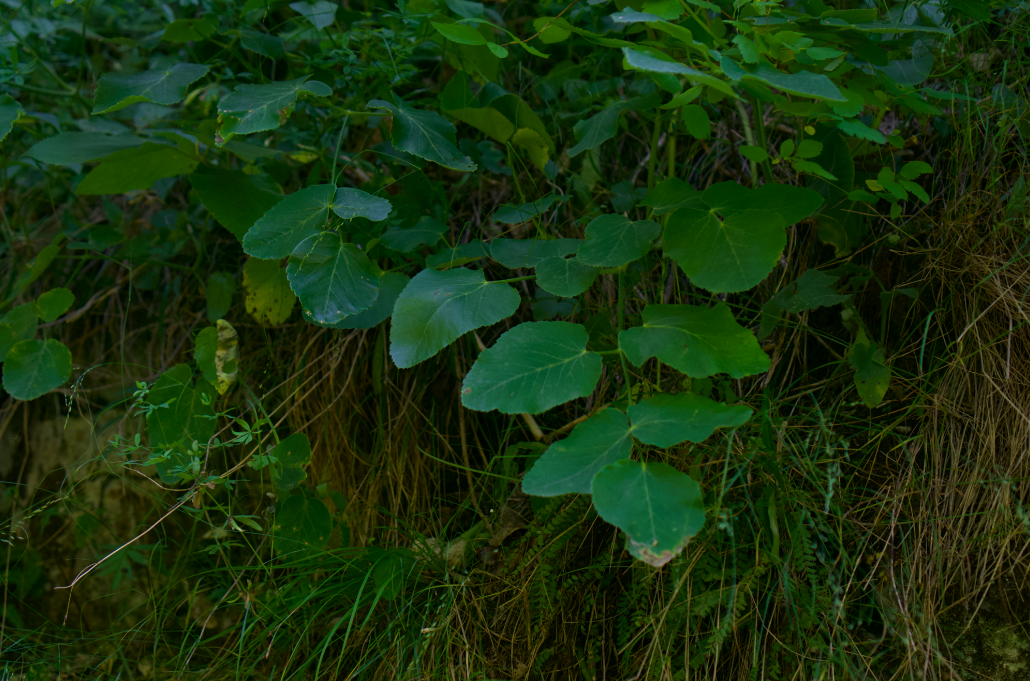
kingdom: Plantae
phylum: Tracheophyta
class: Magnoliopsida
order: Apiales
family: Apiaceae
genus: Laserpitium
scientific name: Laserpitium latifolium
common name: Broadleaf sermountain
